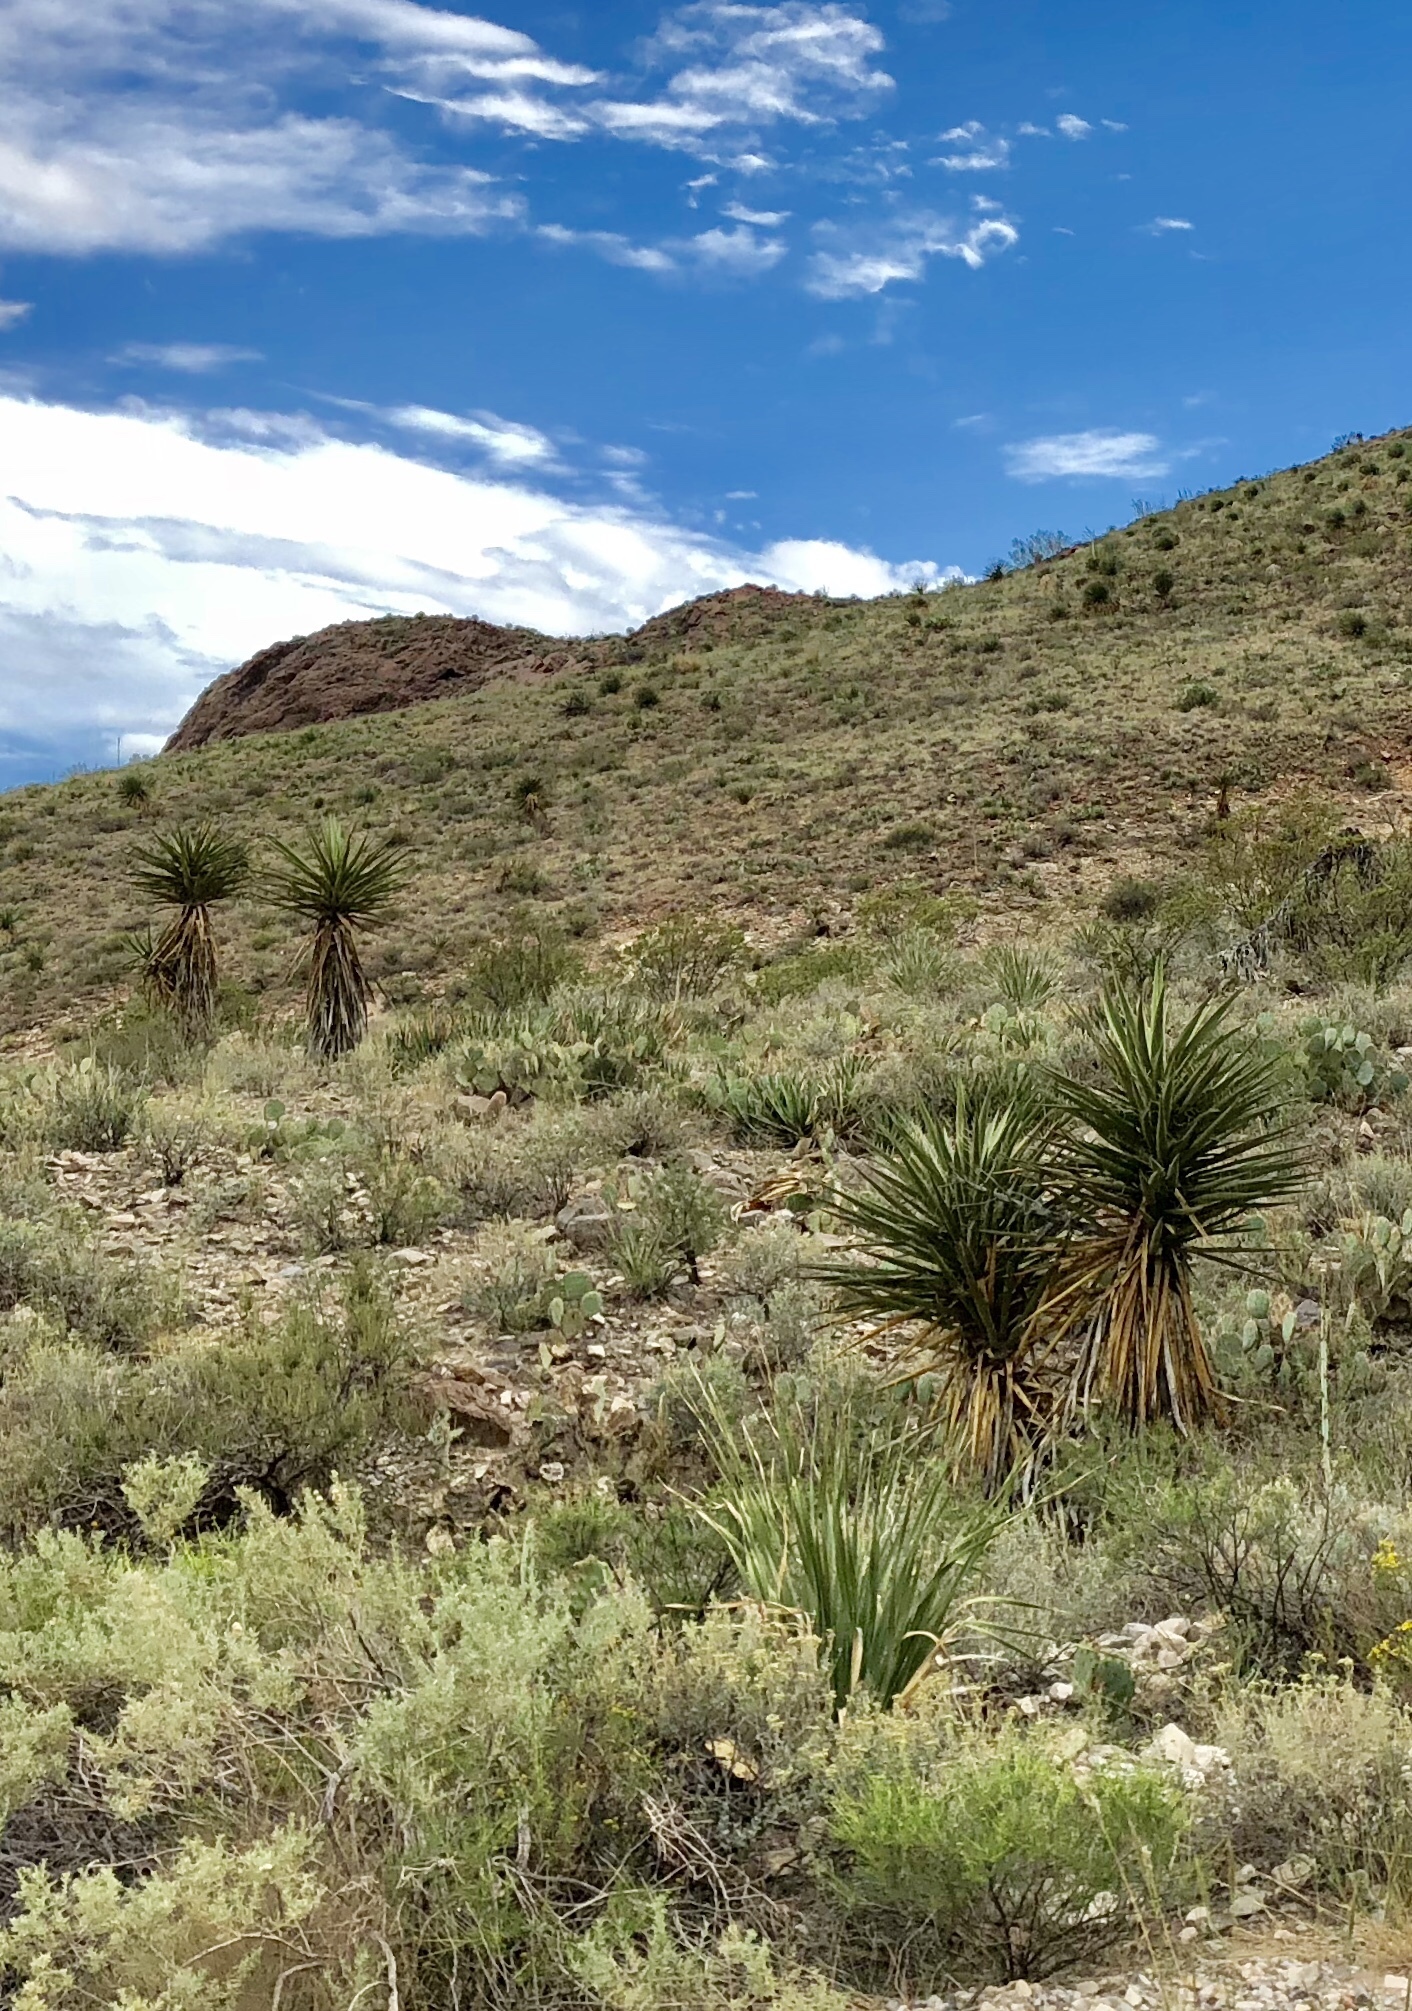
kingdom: Plantae
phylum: Tracheophyta
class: Liliopsida
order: Asparagales
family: Asparagaceae
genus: Yucca
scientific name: Yucca treculiana
